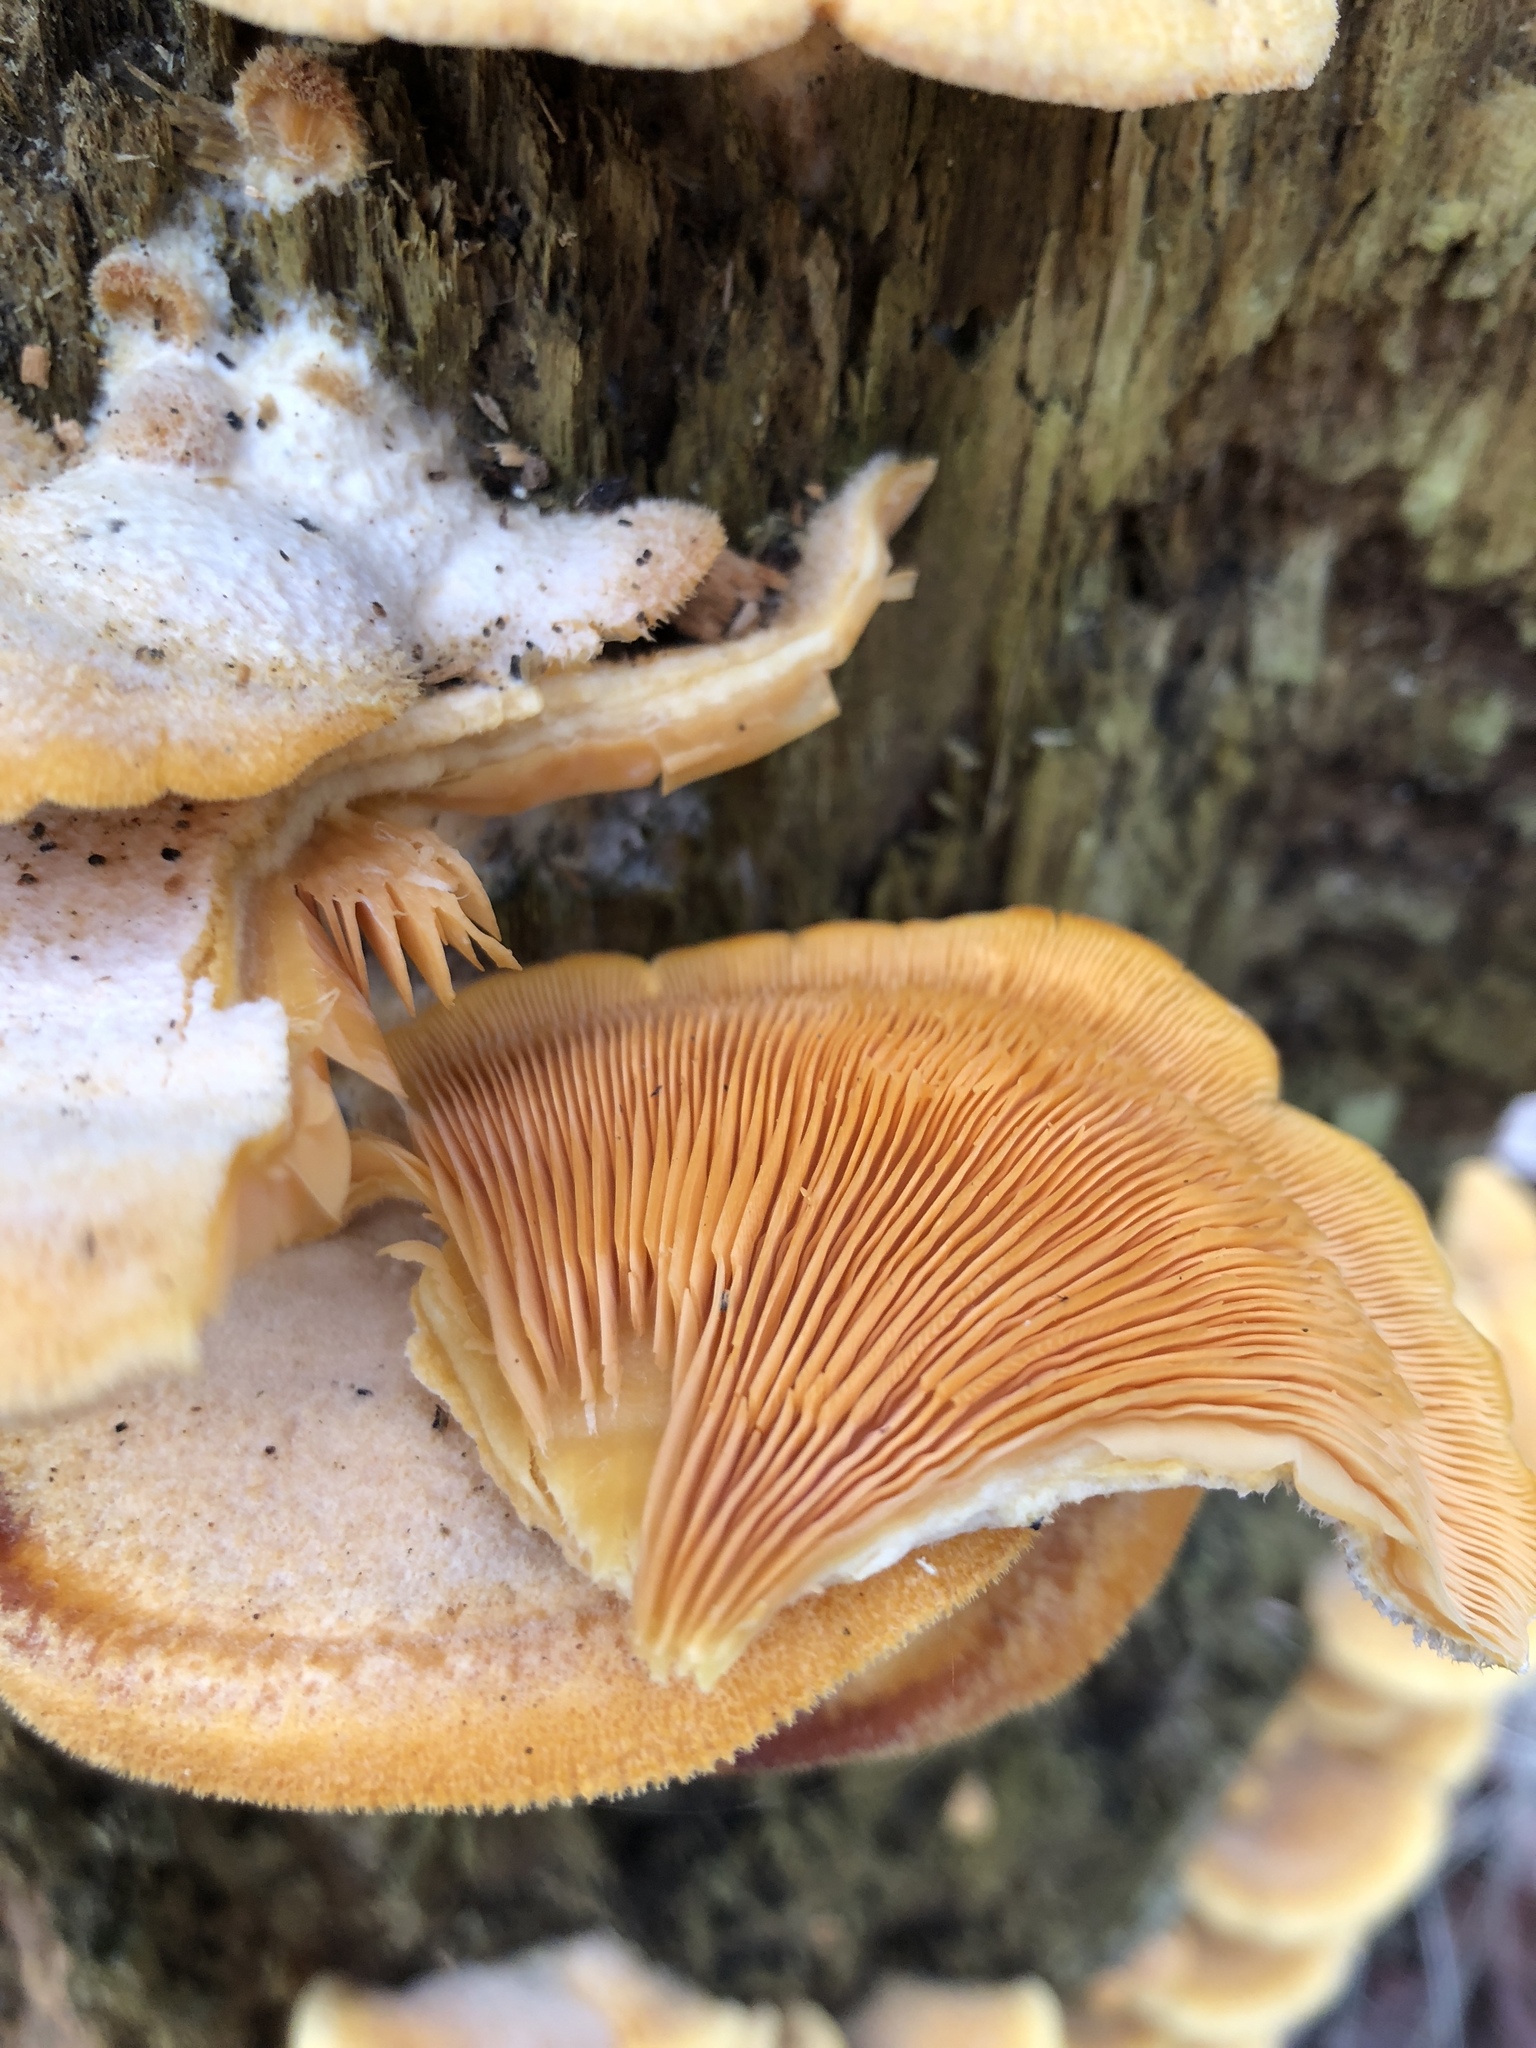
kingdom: Fungi
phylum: Basidiomycota
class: Agaricomycetes
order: Agaricales
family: Phyllotopsidaceae
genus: Phyllotopsis
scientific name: Phyllotopsis nidulans
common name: Orange mock oyster
